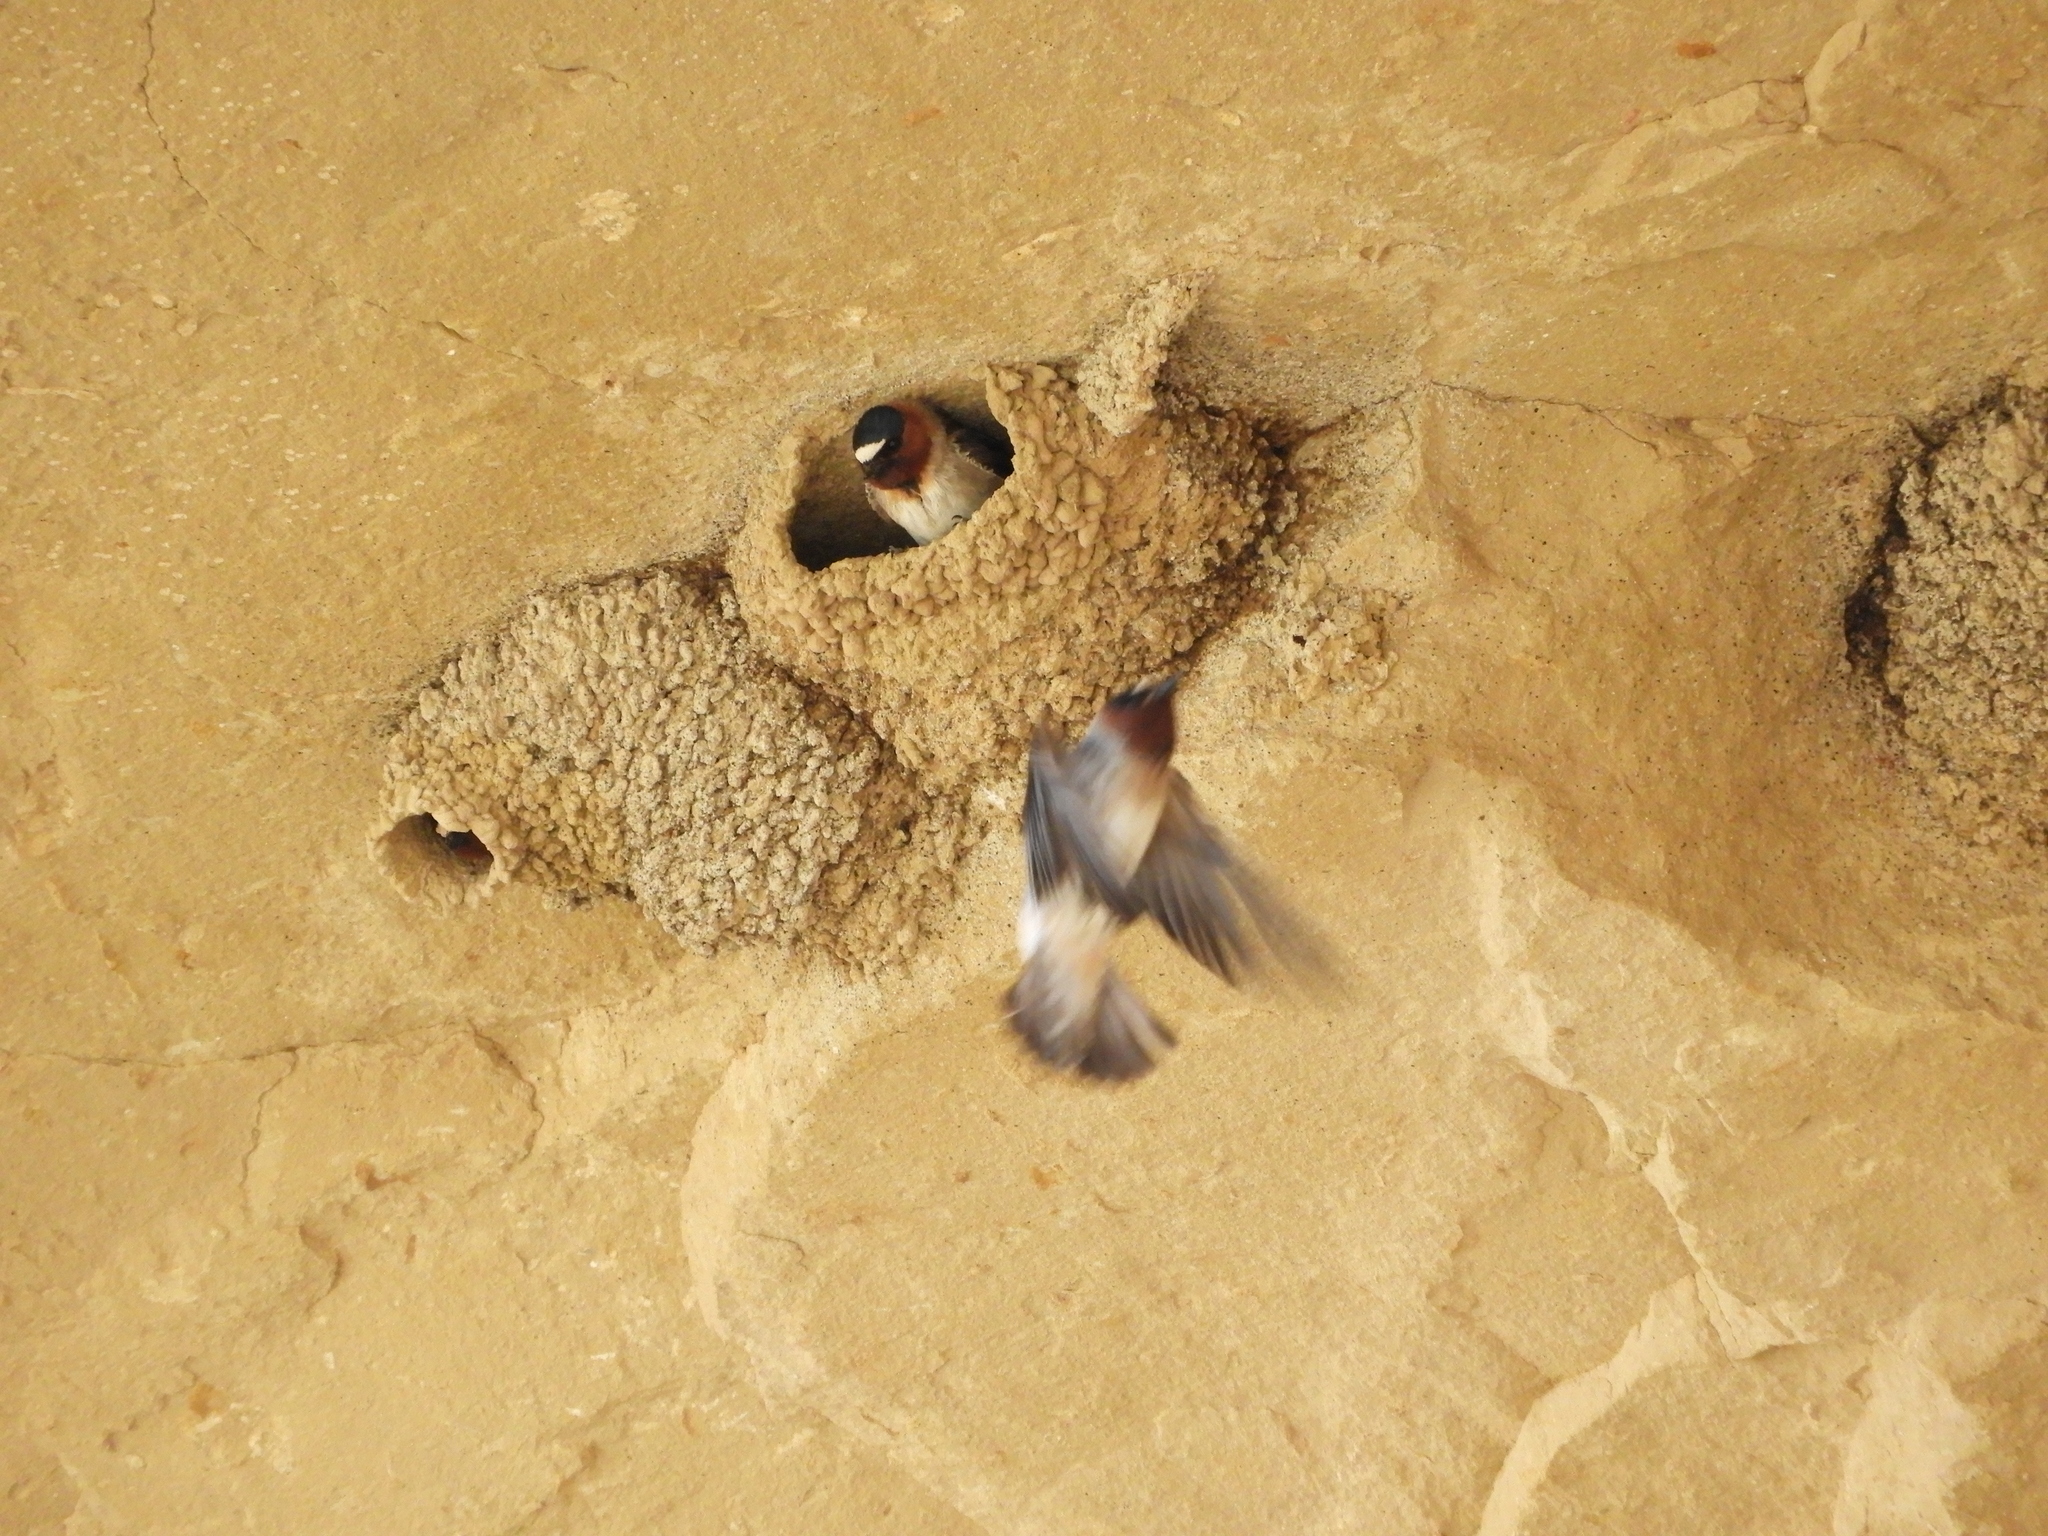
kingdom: Animalia
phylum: Chordata
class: Aves
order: Passeriformes
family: Hirundinidae
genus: Petrochelidon
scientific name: Petrochelidon pyrrhonota
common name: American cliff swallow
